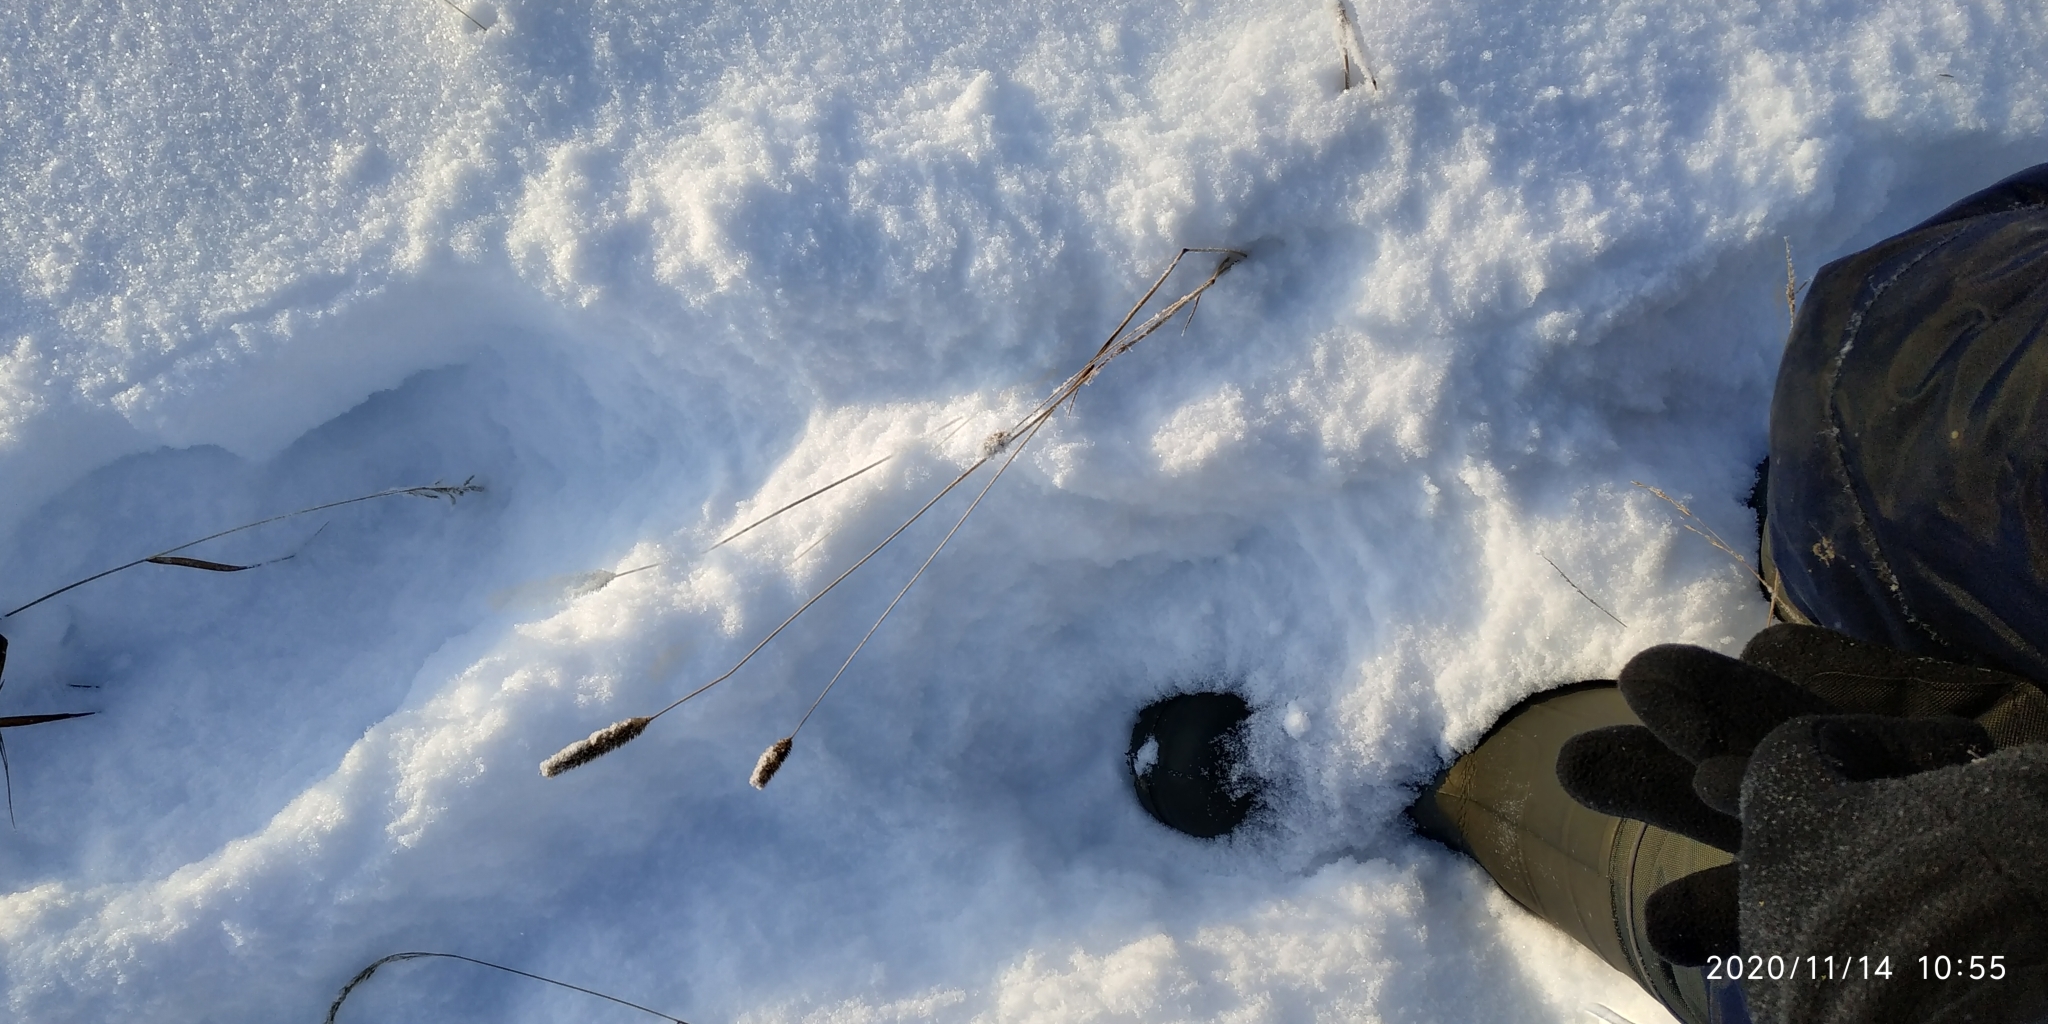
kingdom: Plantae
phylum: Tracheophyta
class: Liliopsida
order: Poales
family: Poaceae
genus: Phleum
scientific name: Phleum pratense
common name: Timothy grass
